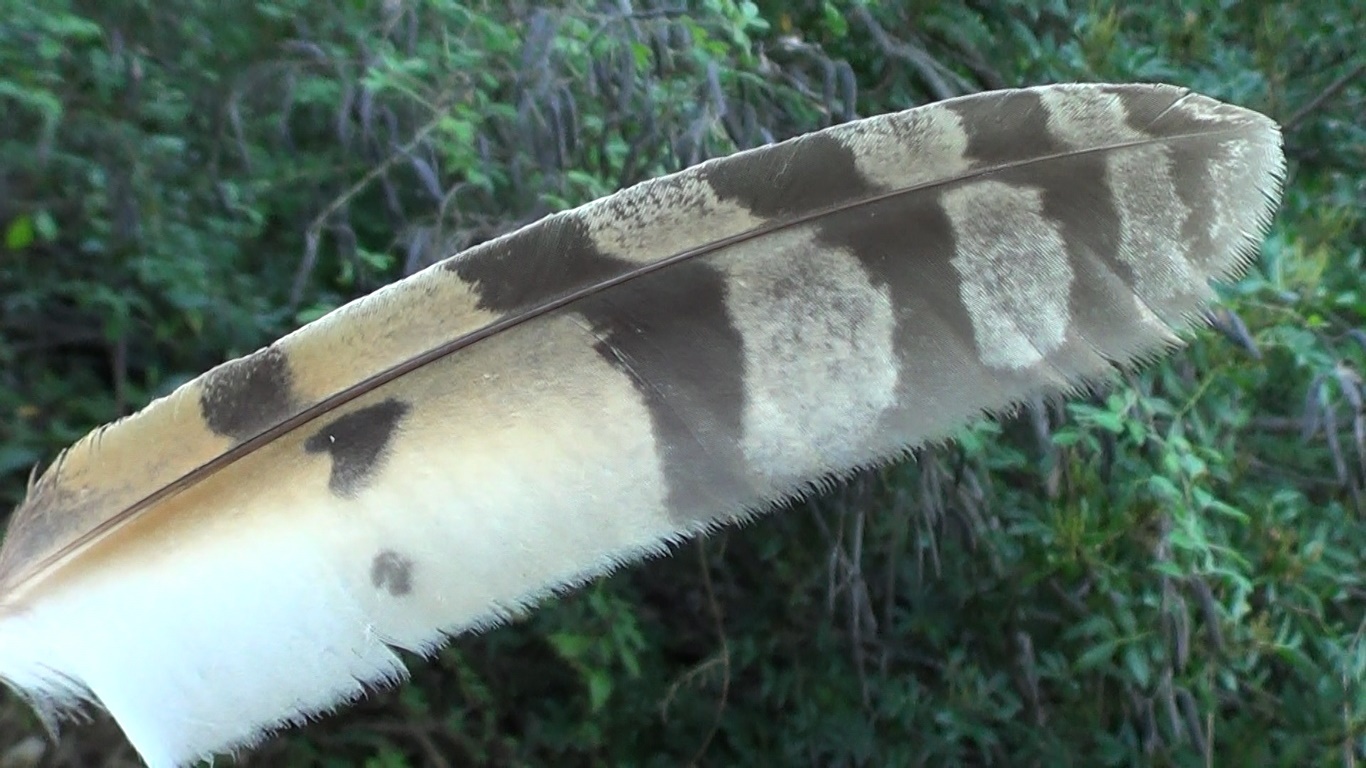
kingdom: Animalia
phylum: Chordata
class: Aves
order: Strigiformes
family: Strigidae
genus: Asio
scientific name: Asio otus
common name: Long-eared owl
